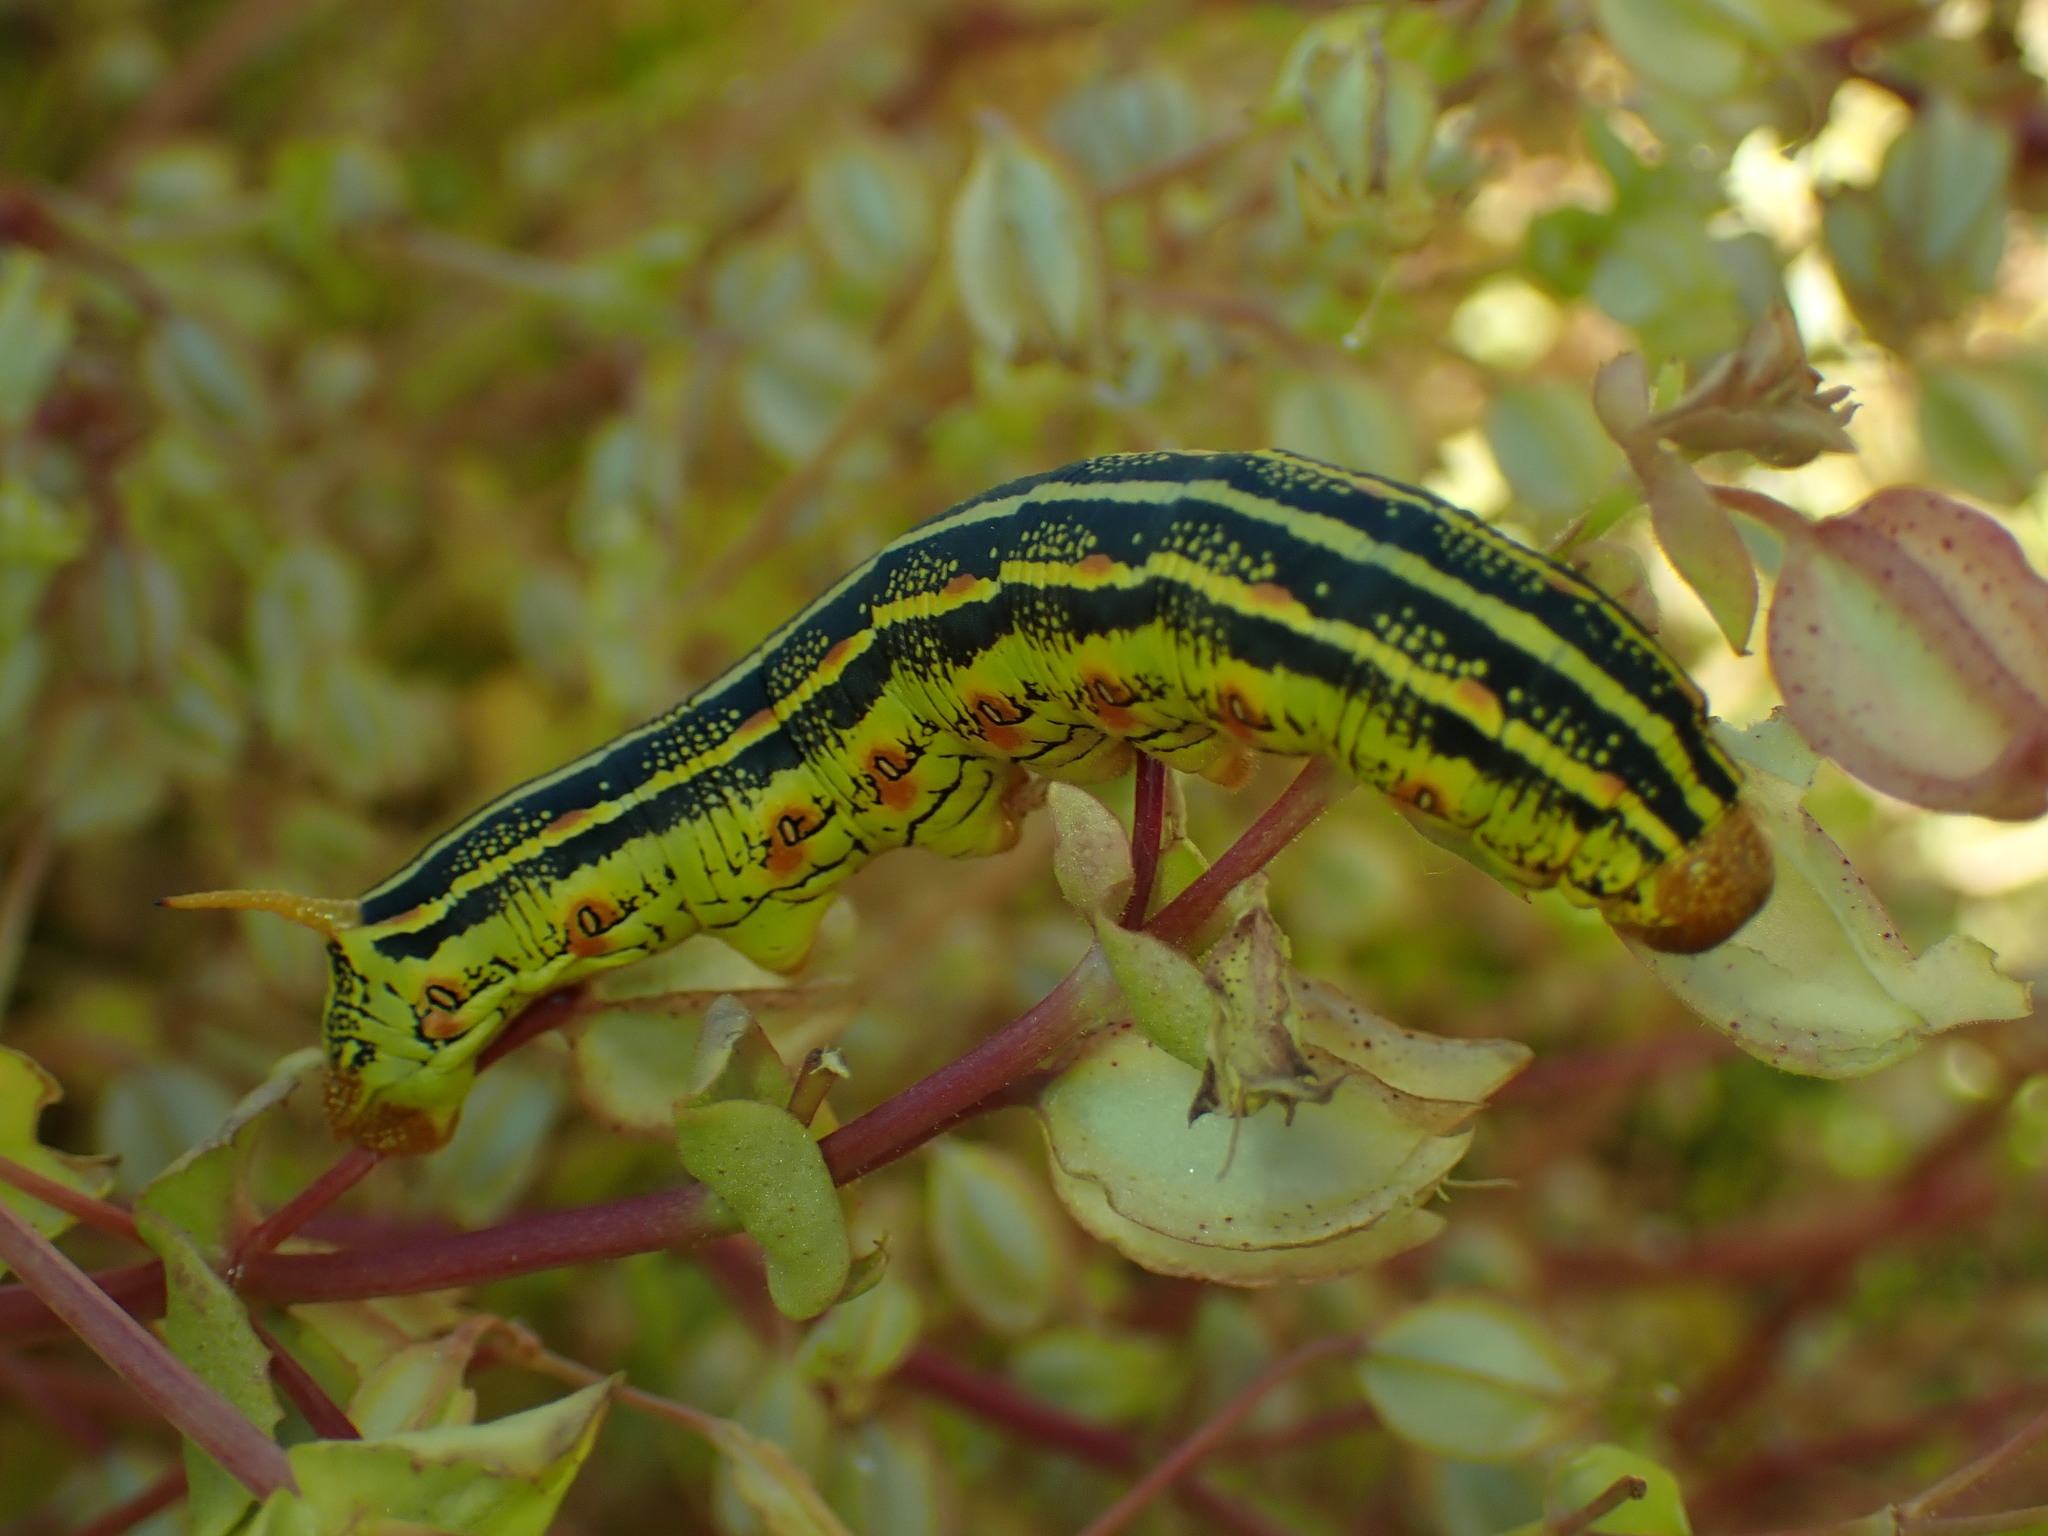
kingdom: Animalia
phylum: Arthropoda
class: Insecta
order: Lepidoptera
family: Sphingidae
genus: Hyles
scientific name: Hyles lineata
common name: White-lined sphinx
